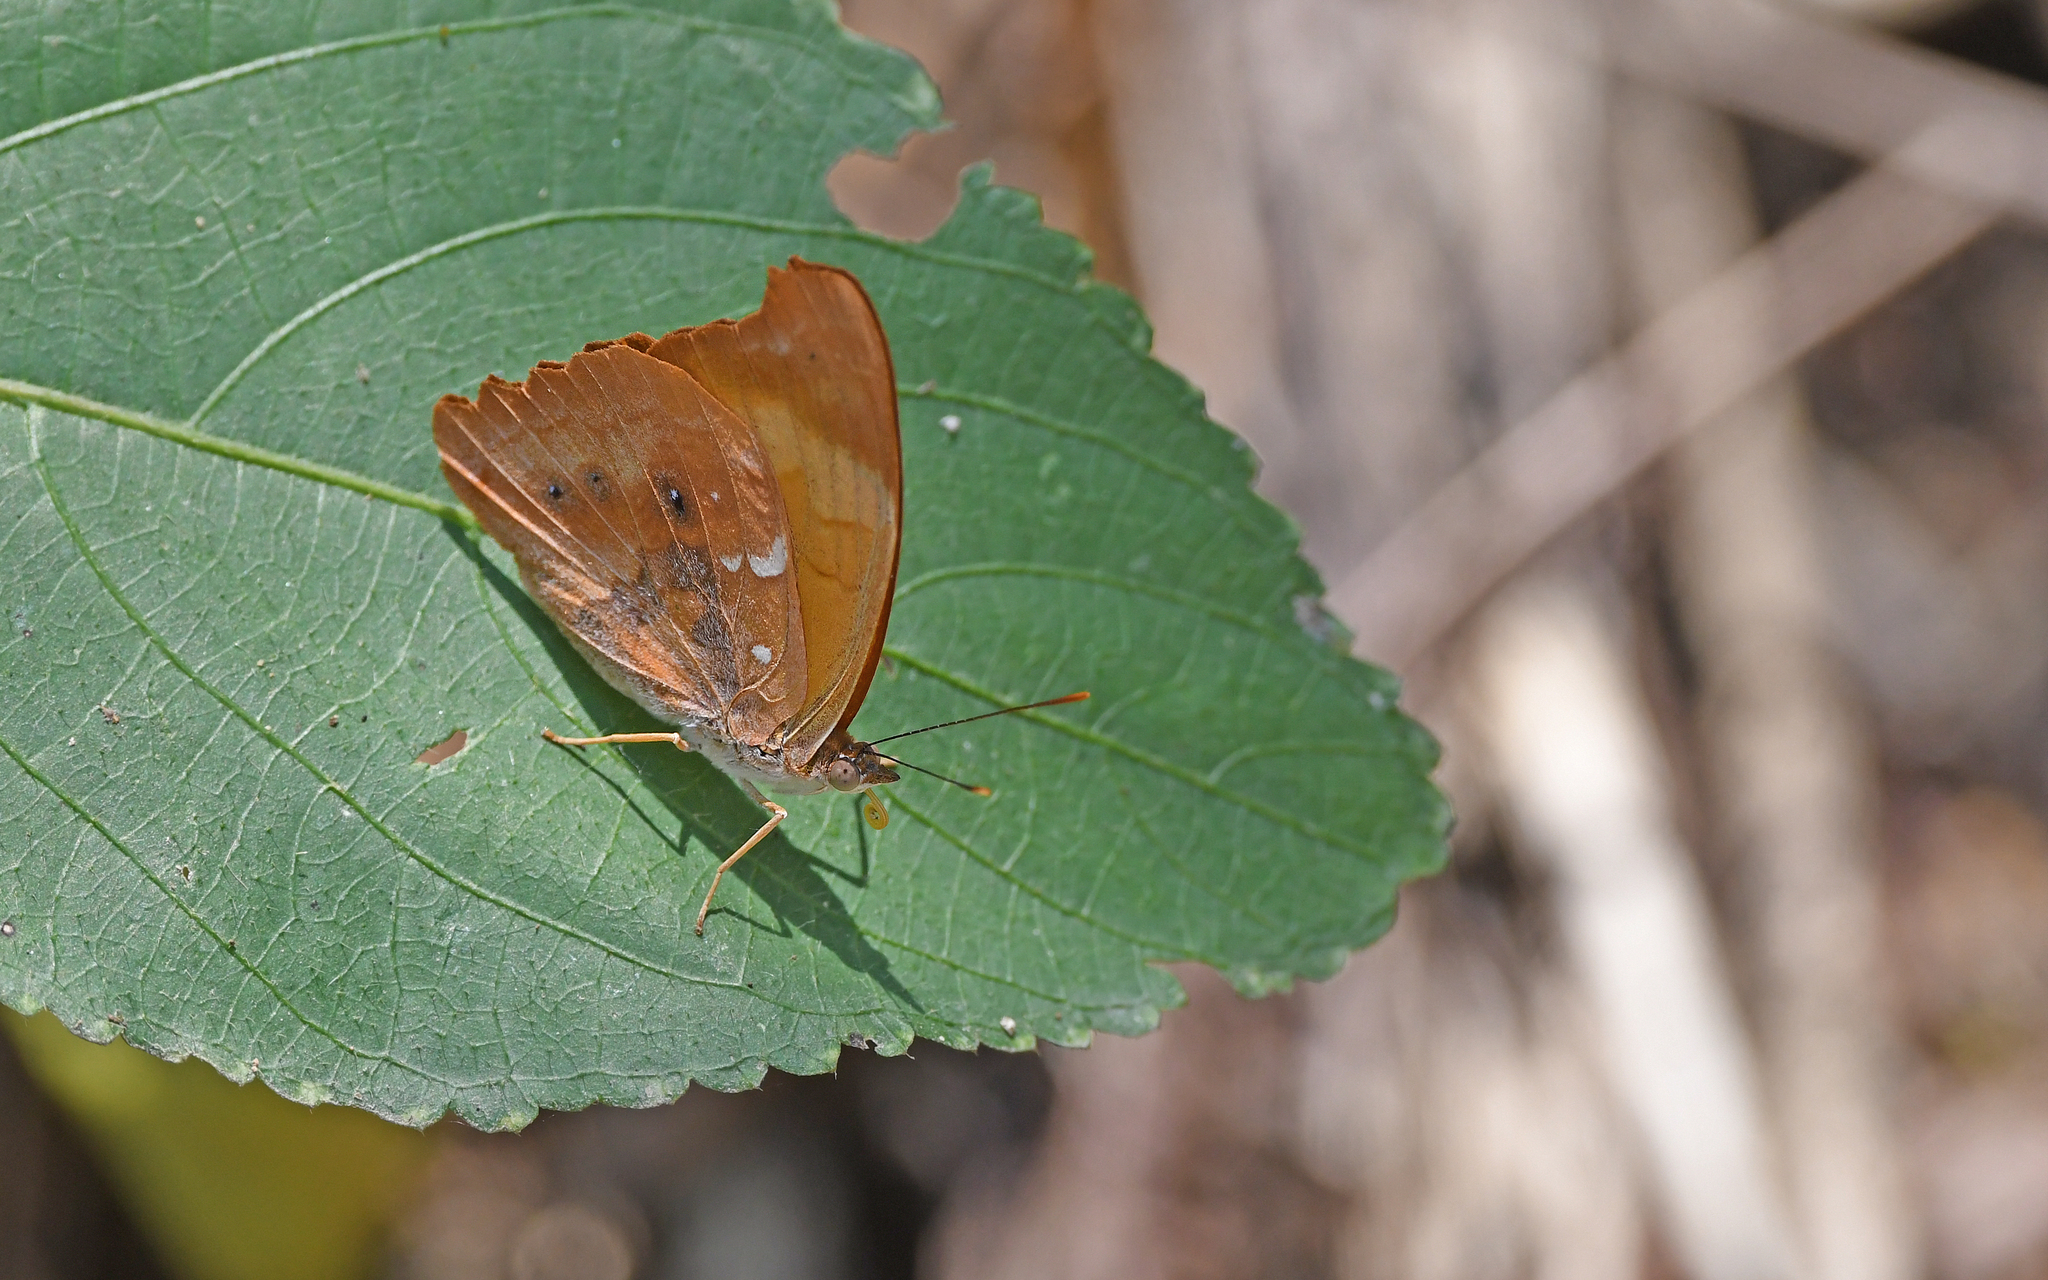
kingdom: Animalia
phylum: Arthropoda
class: Insecta
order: Lepidoptera
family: Nymphalidae
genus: Temenis
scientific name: Temenis laothoe
